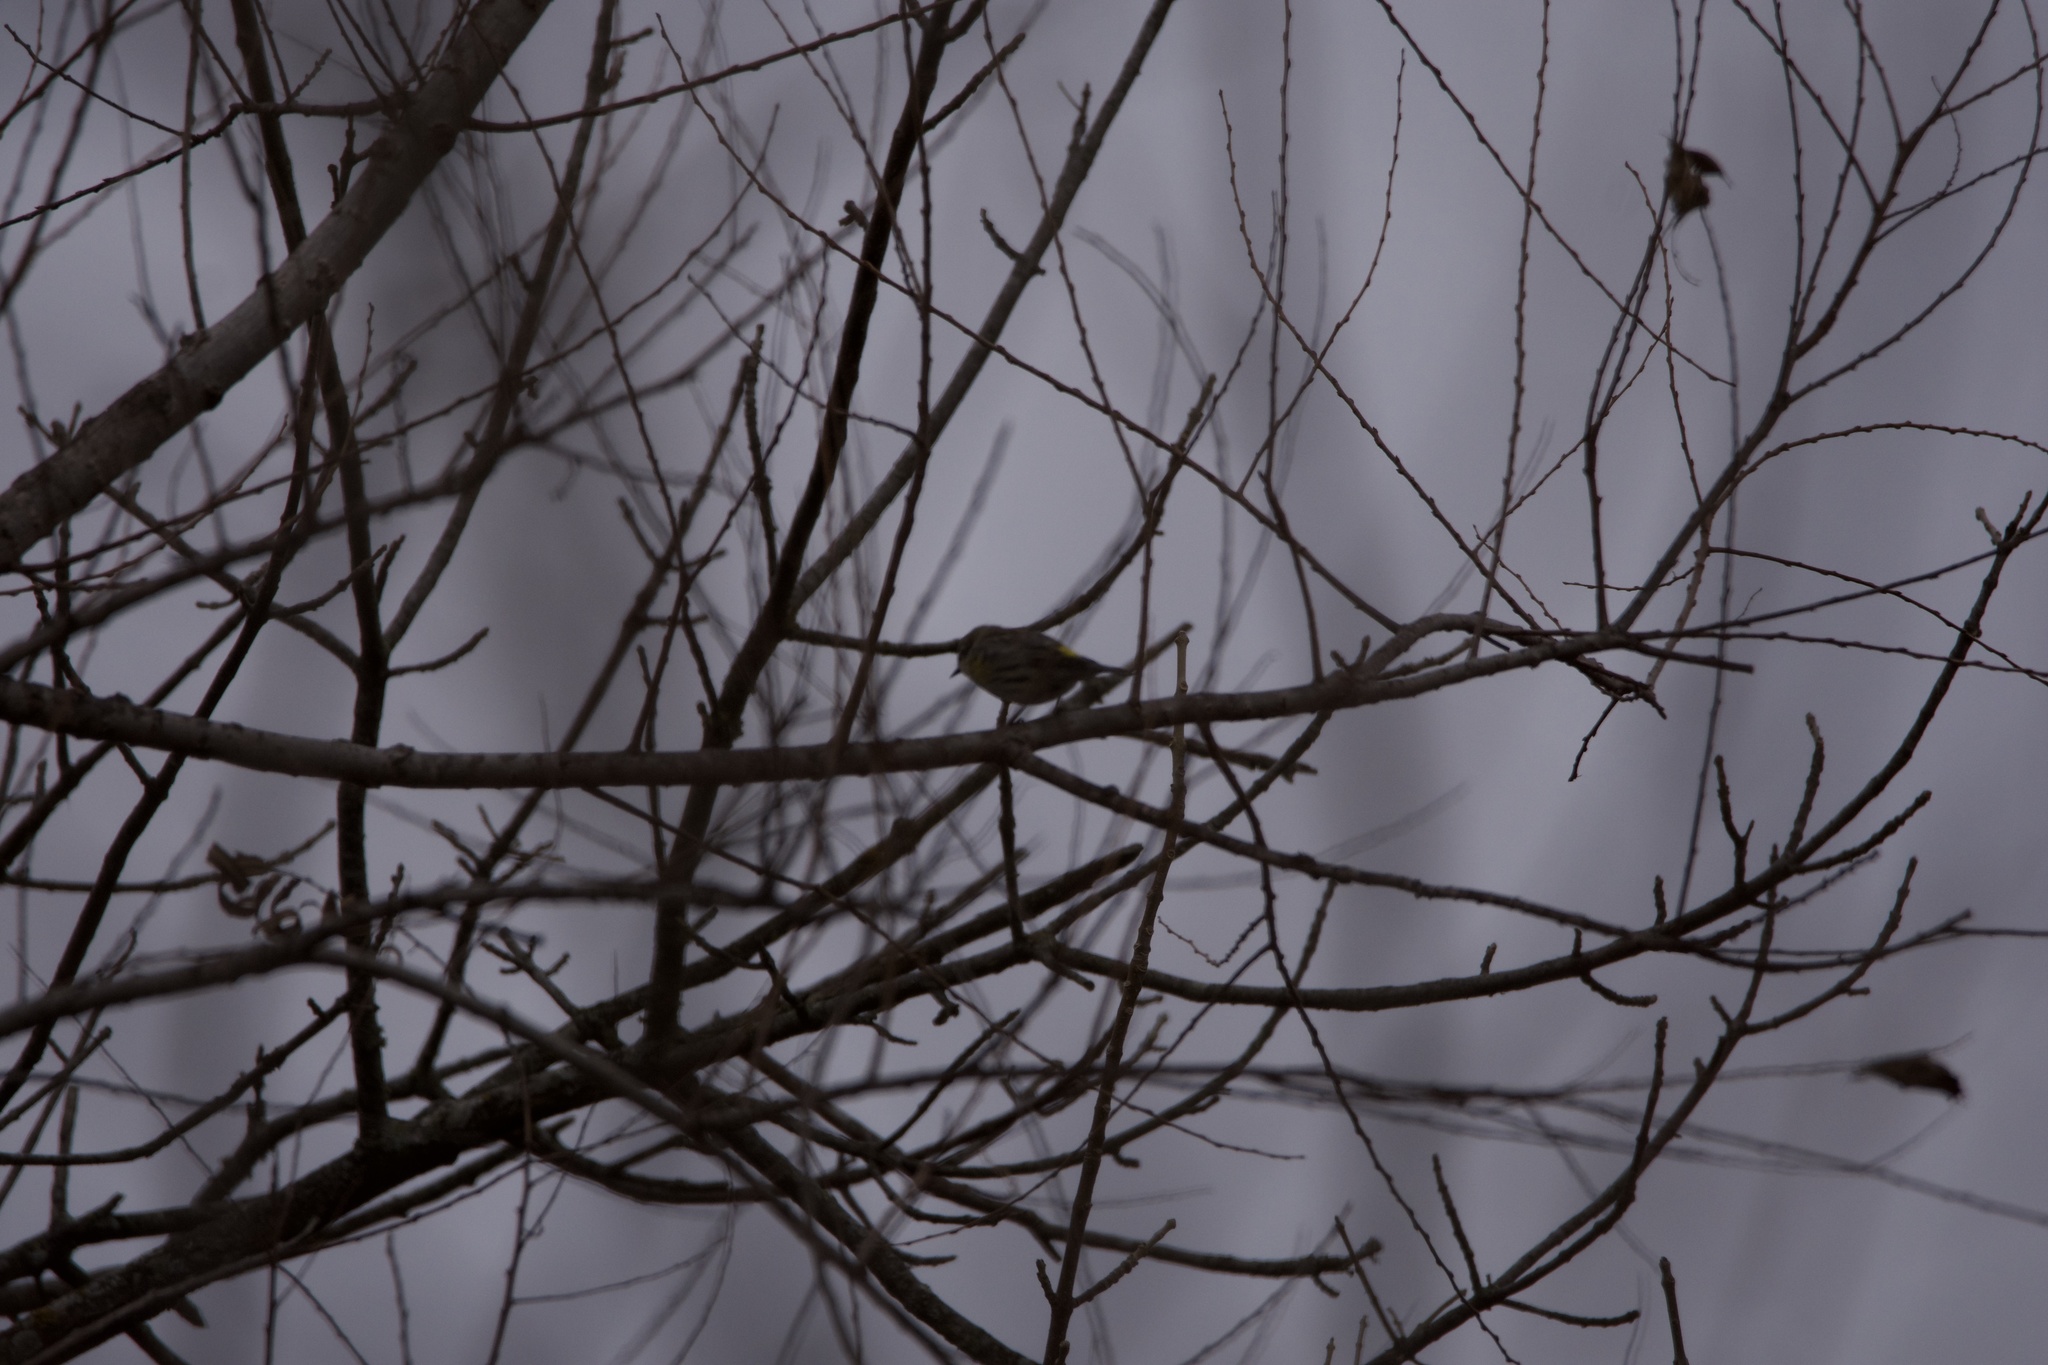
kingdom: Animalia
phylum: Chordata
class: Aves
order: Passeriformes
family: Parulidae
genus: Setophaga
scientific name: Setophaga coronata
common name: Myrtle warbler
